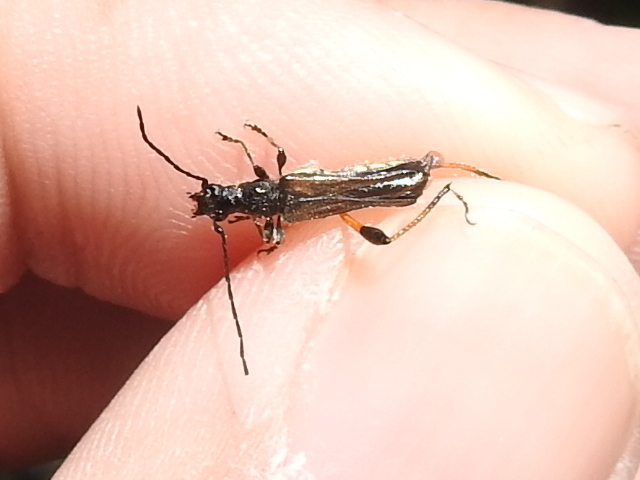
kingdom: Animalia
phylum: Arthropoda
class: Insecta
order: Coleoptera
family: Cerambycidae
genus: Callimoxys
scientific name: Callimoxys fuscipennis
